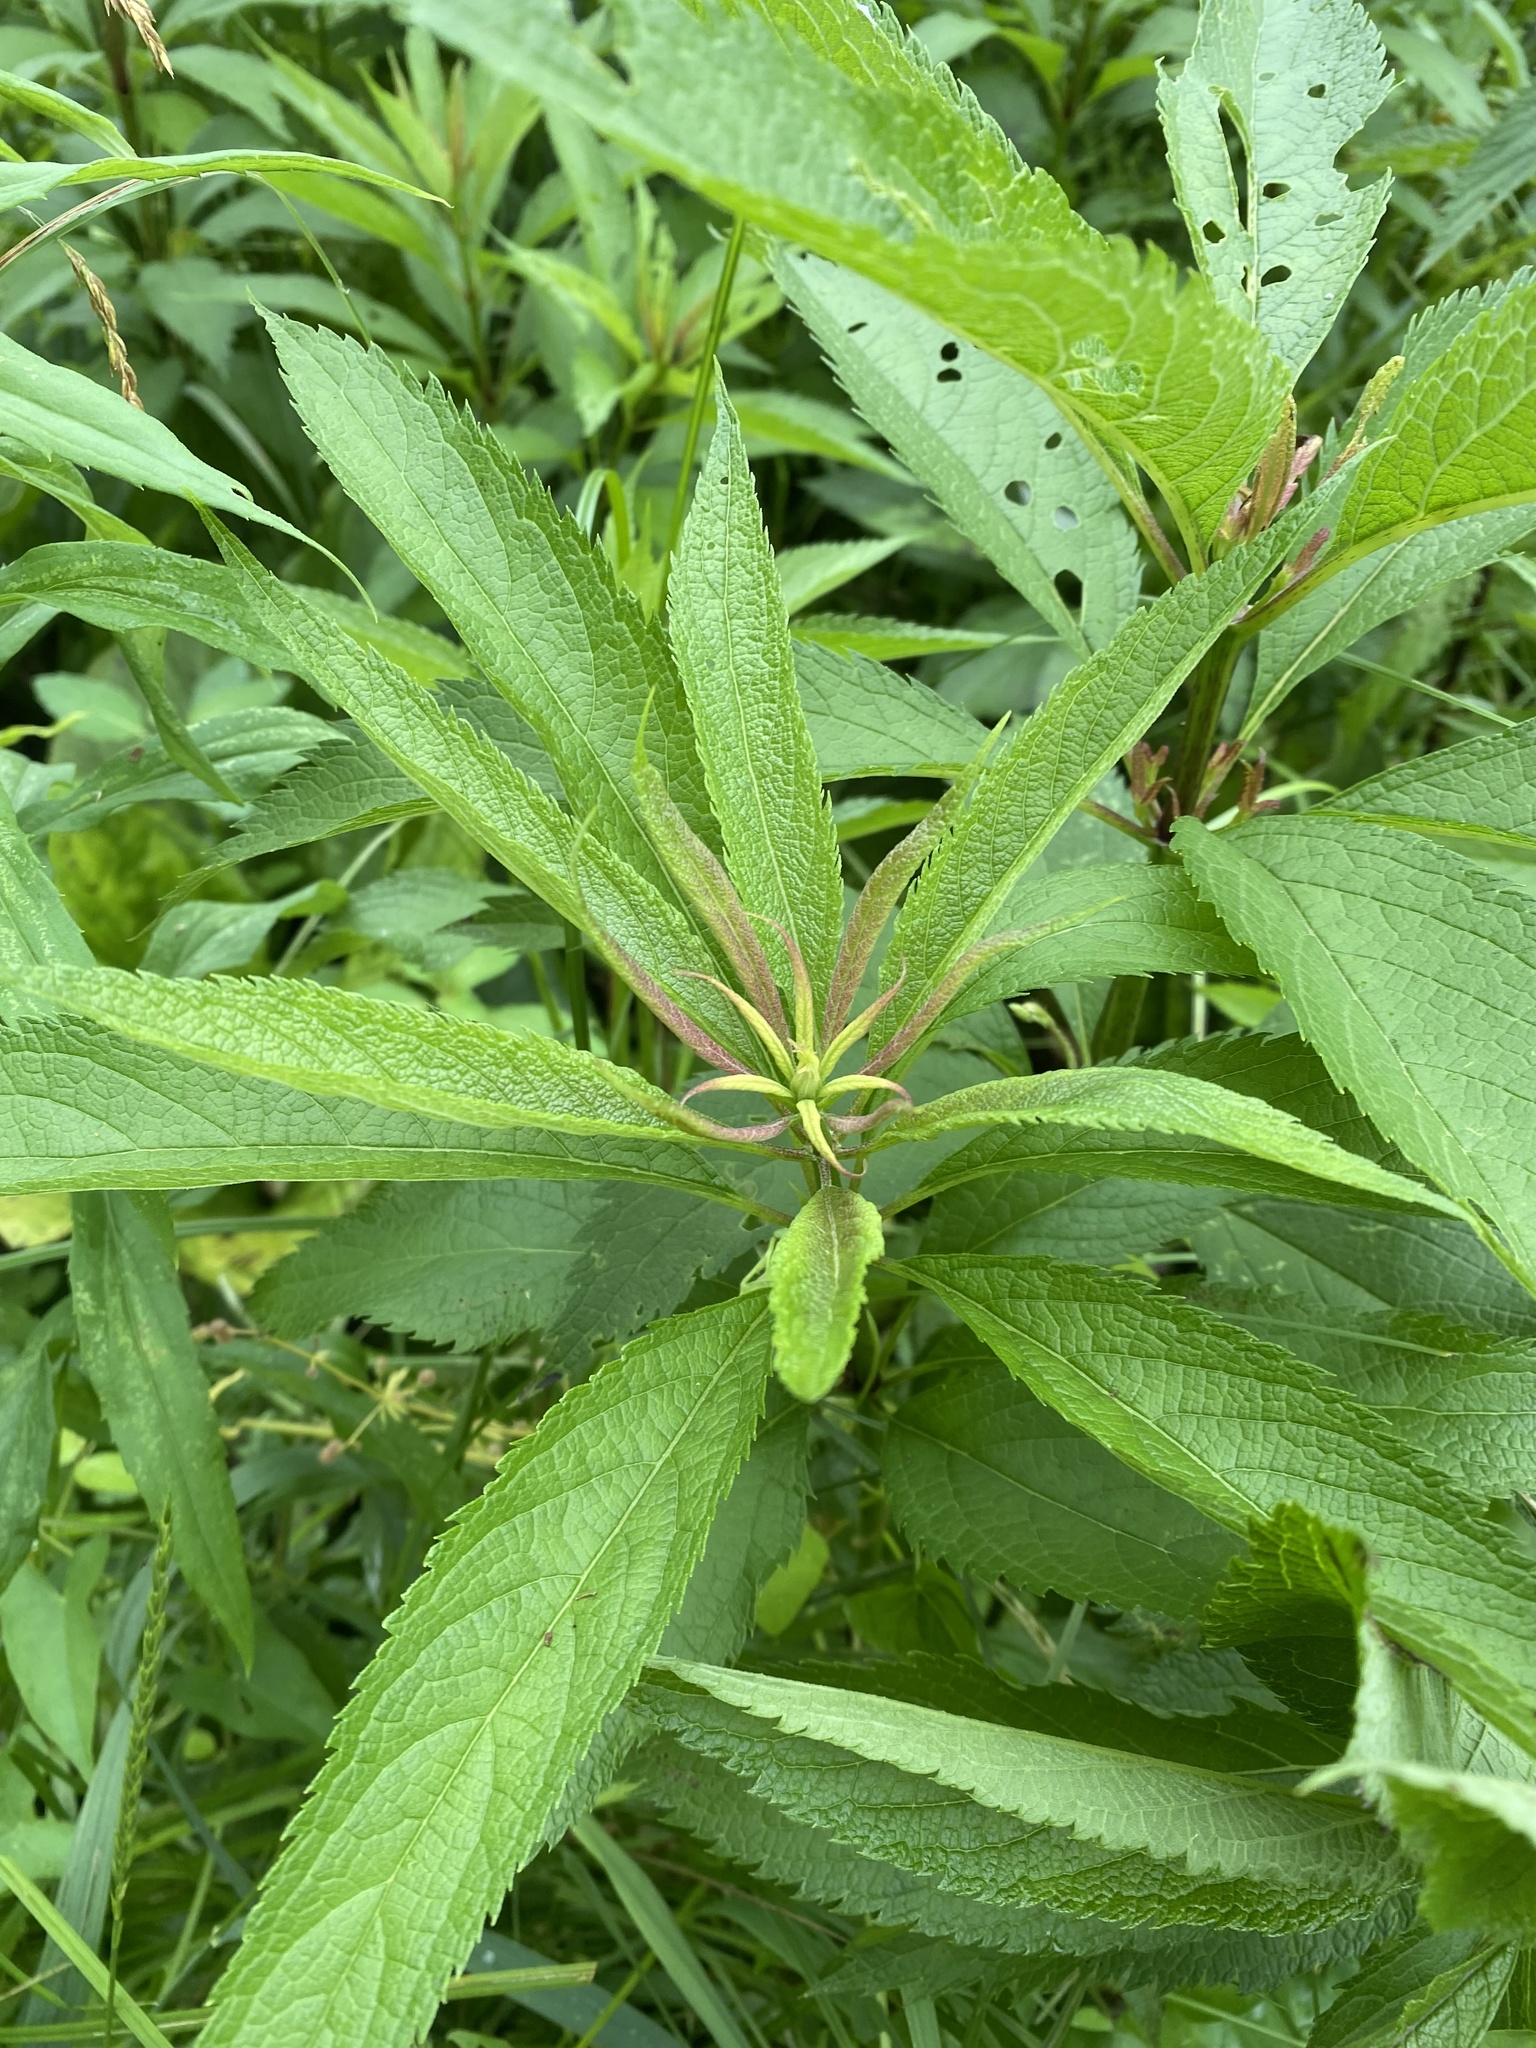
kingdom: Plantae
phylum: Tracheophyta
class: Magnoliopsida
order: Asterales
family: Asteraceae
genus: Eutrochium
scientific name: Eutrochium maculatum
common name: Spotted joe pye weed
